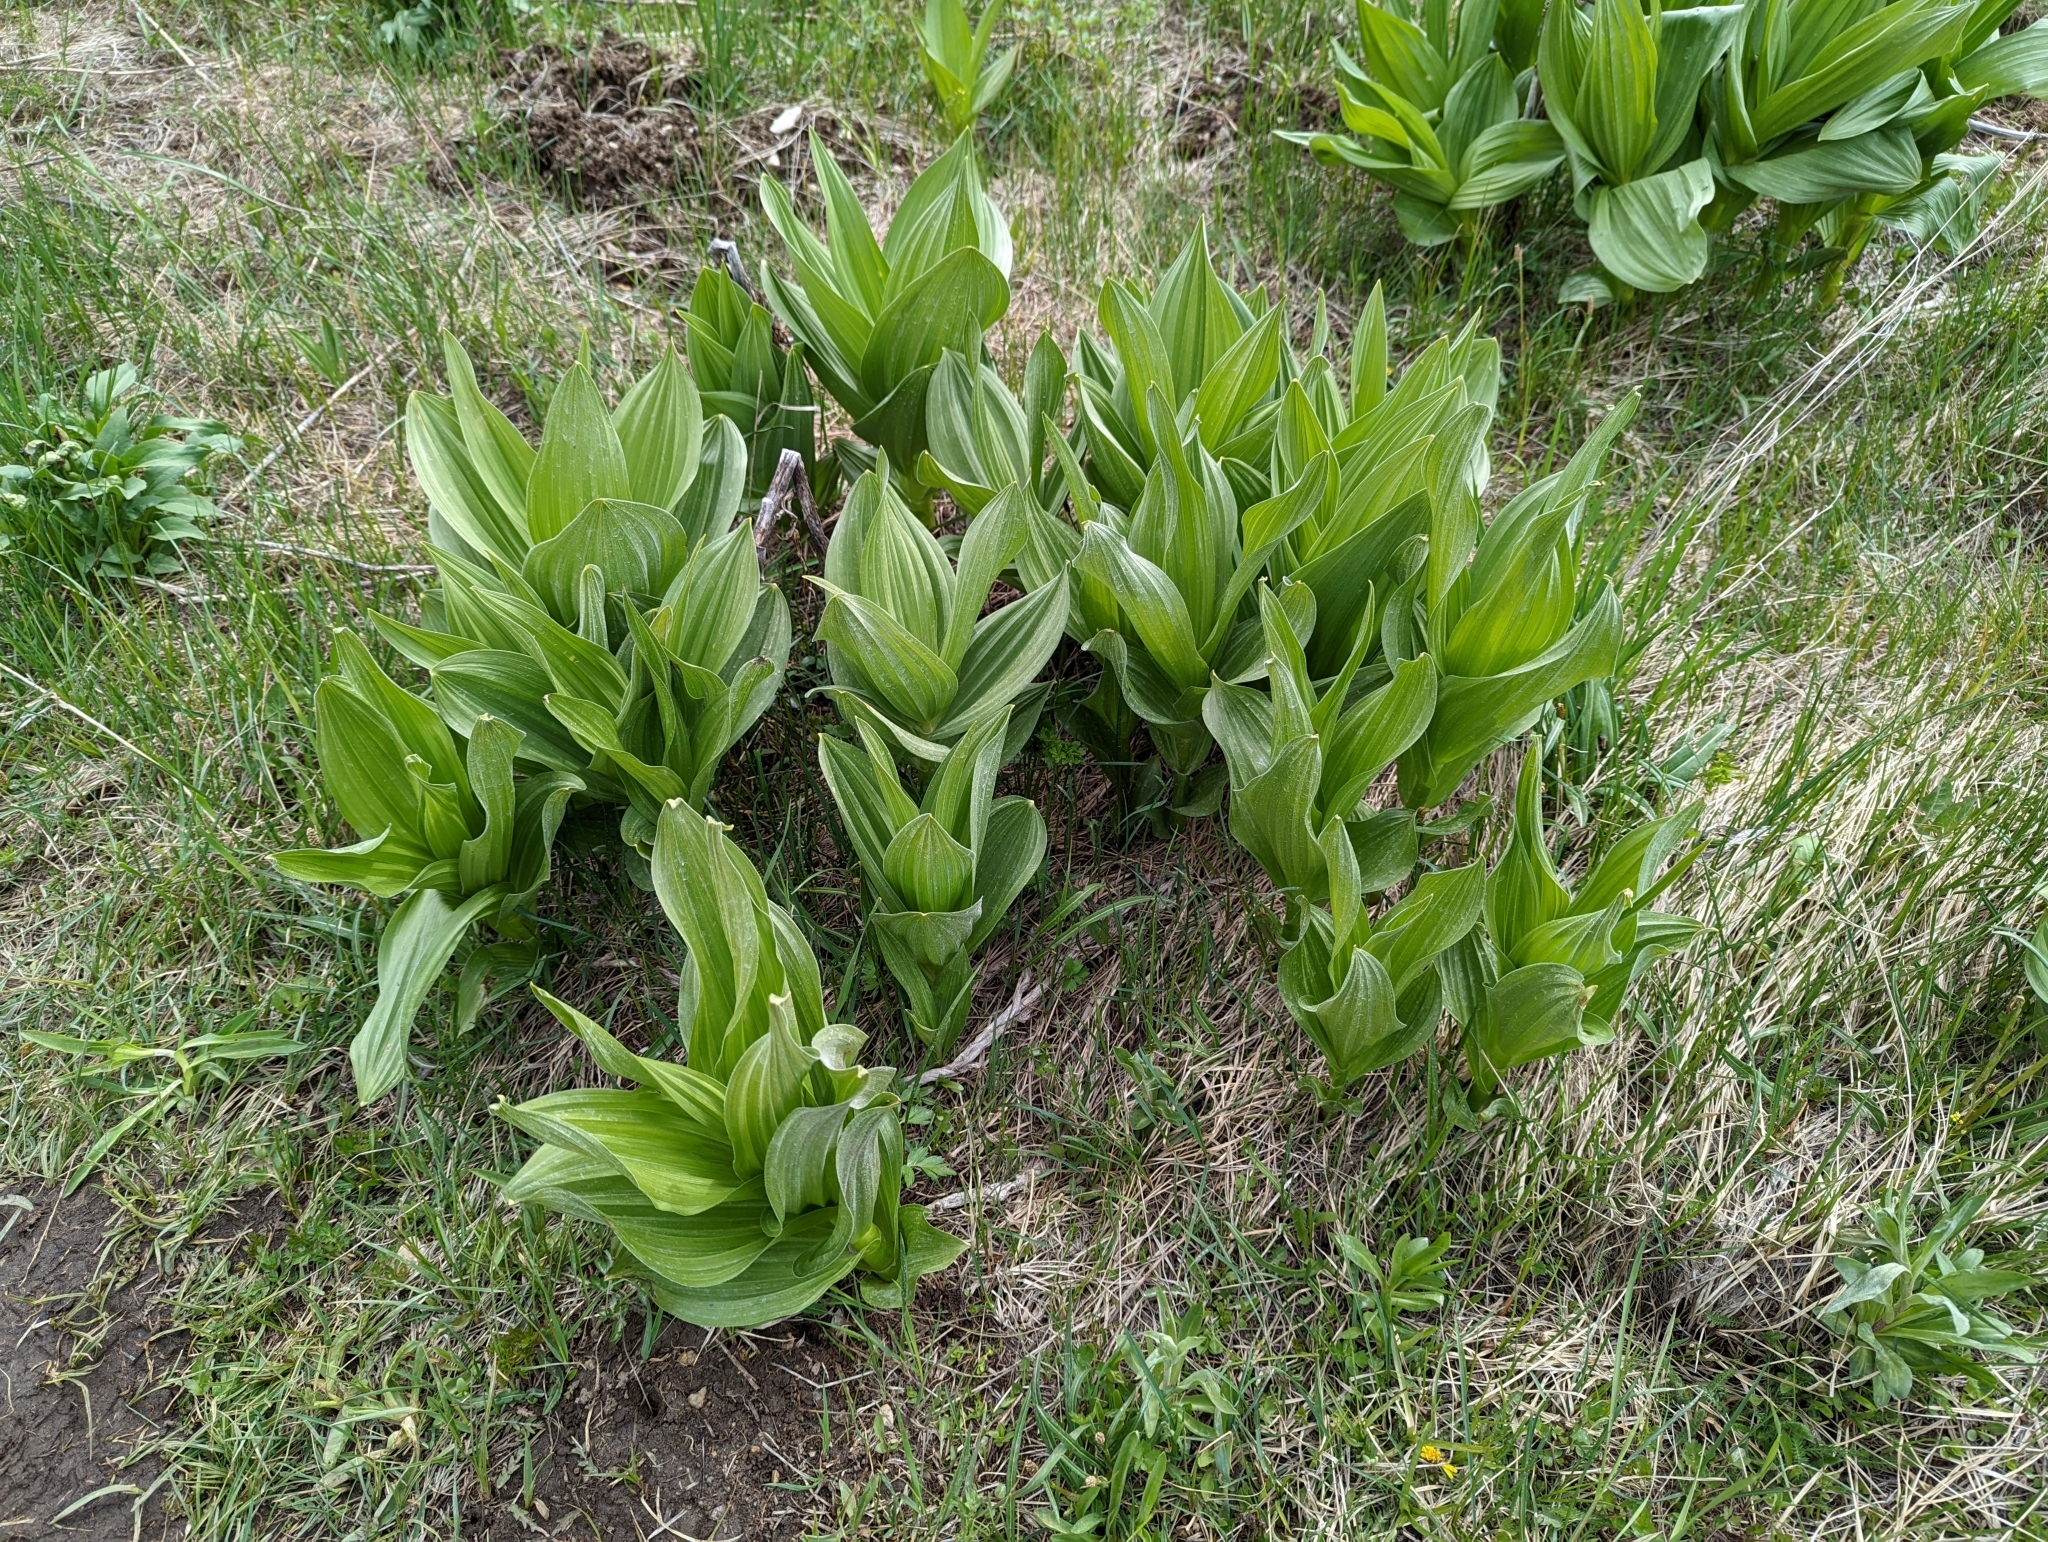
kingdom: Plantae
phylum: Tracheophyta
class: Liliopsida
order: Liliales
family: Melanthiaceae
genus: Veratrum
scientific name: Veratrum californicum
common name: California veratrum
